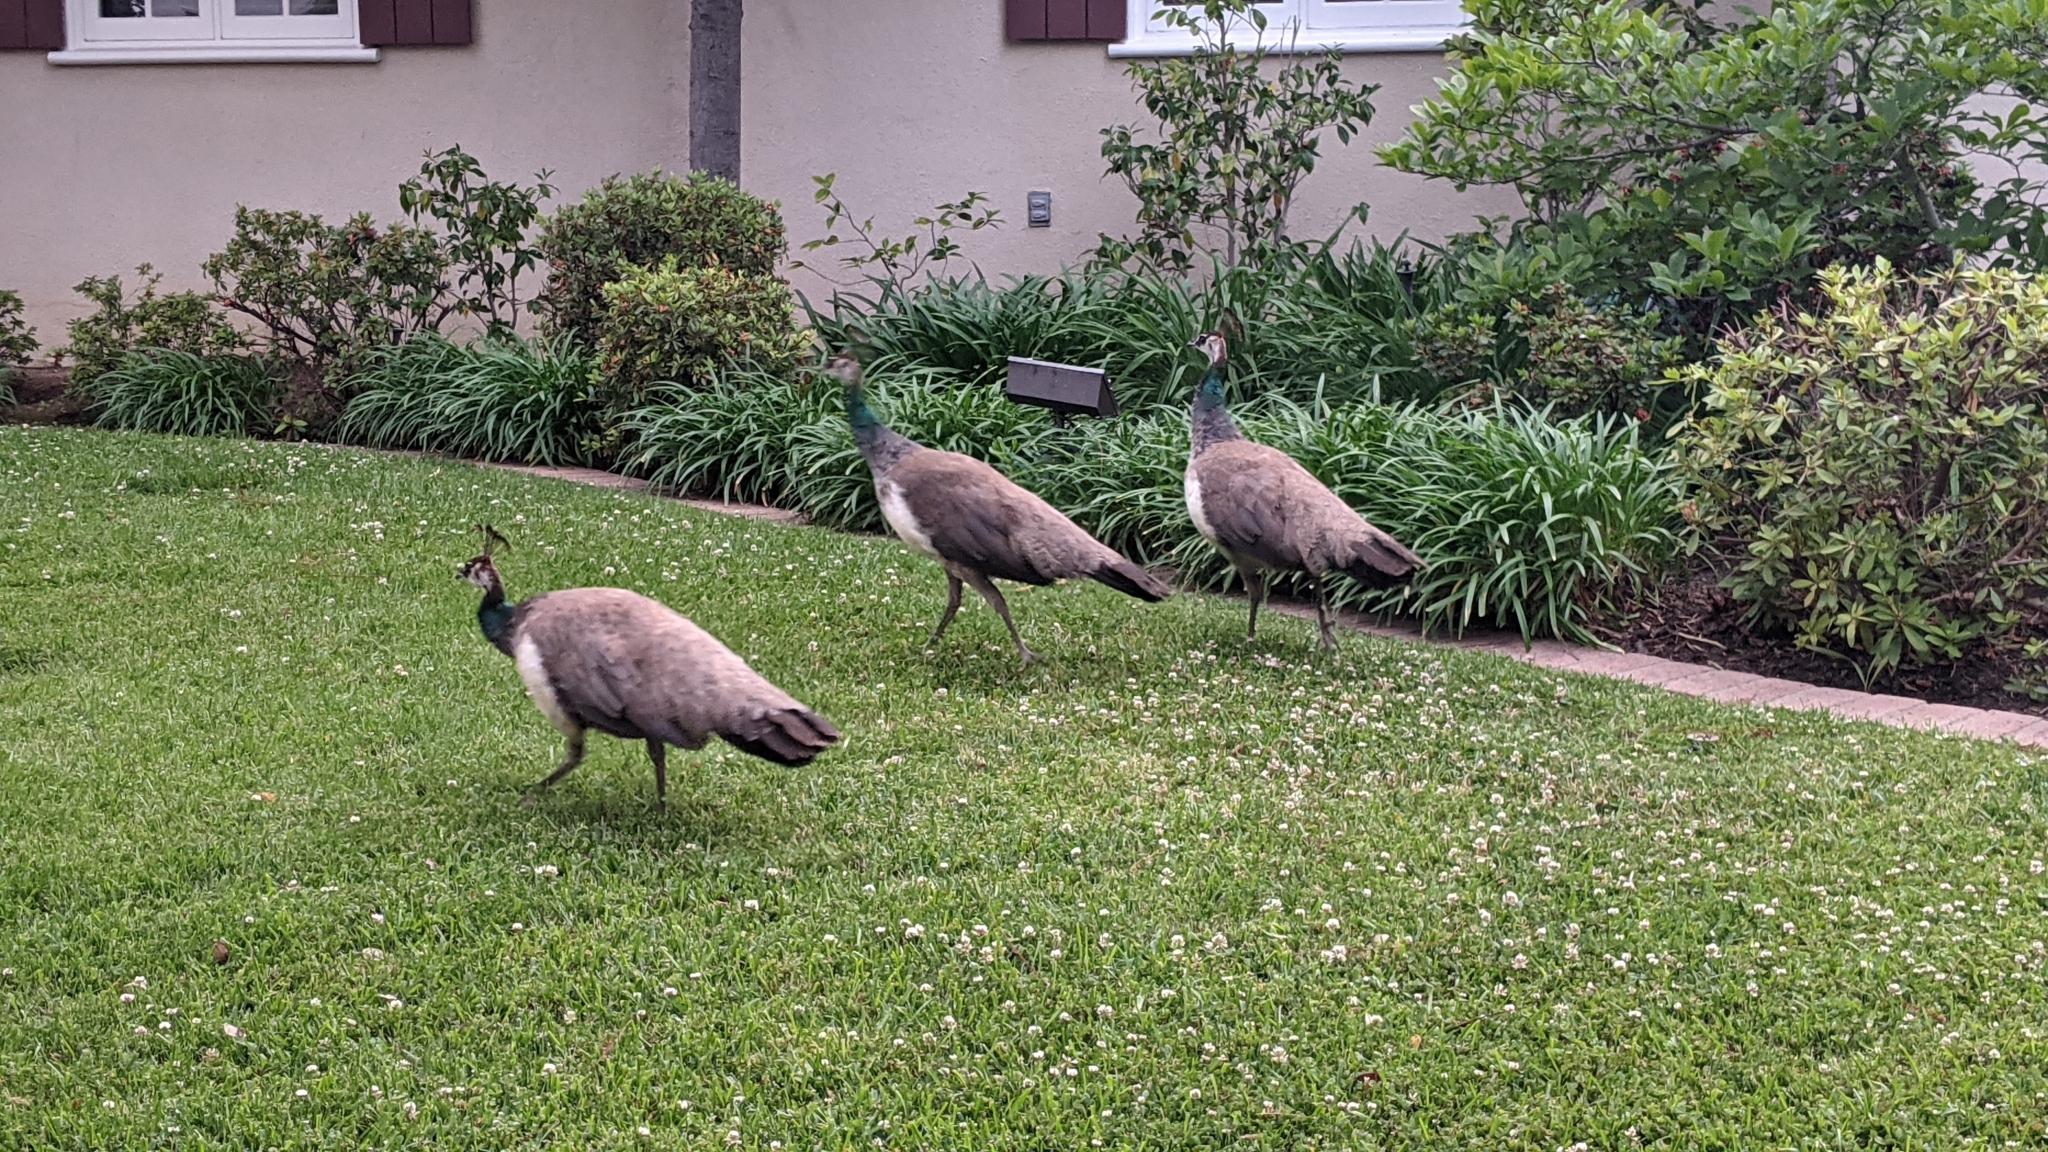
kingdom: Animalia
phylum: Chordata
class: Aves
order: Galliformes
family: Phasianidae
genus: Pavo
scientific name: Pavo cristatus
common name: Indian peafowl
